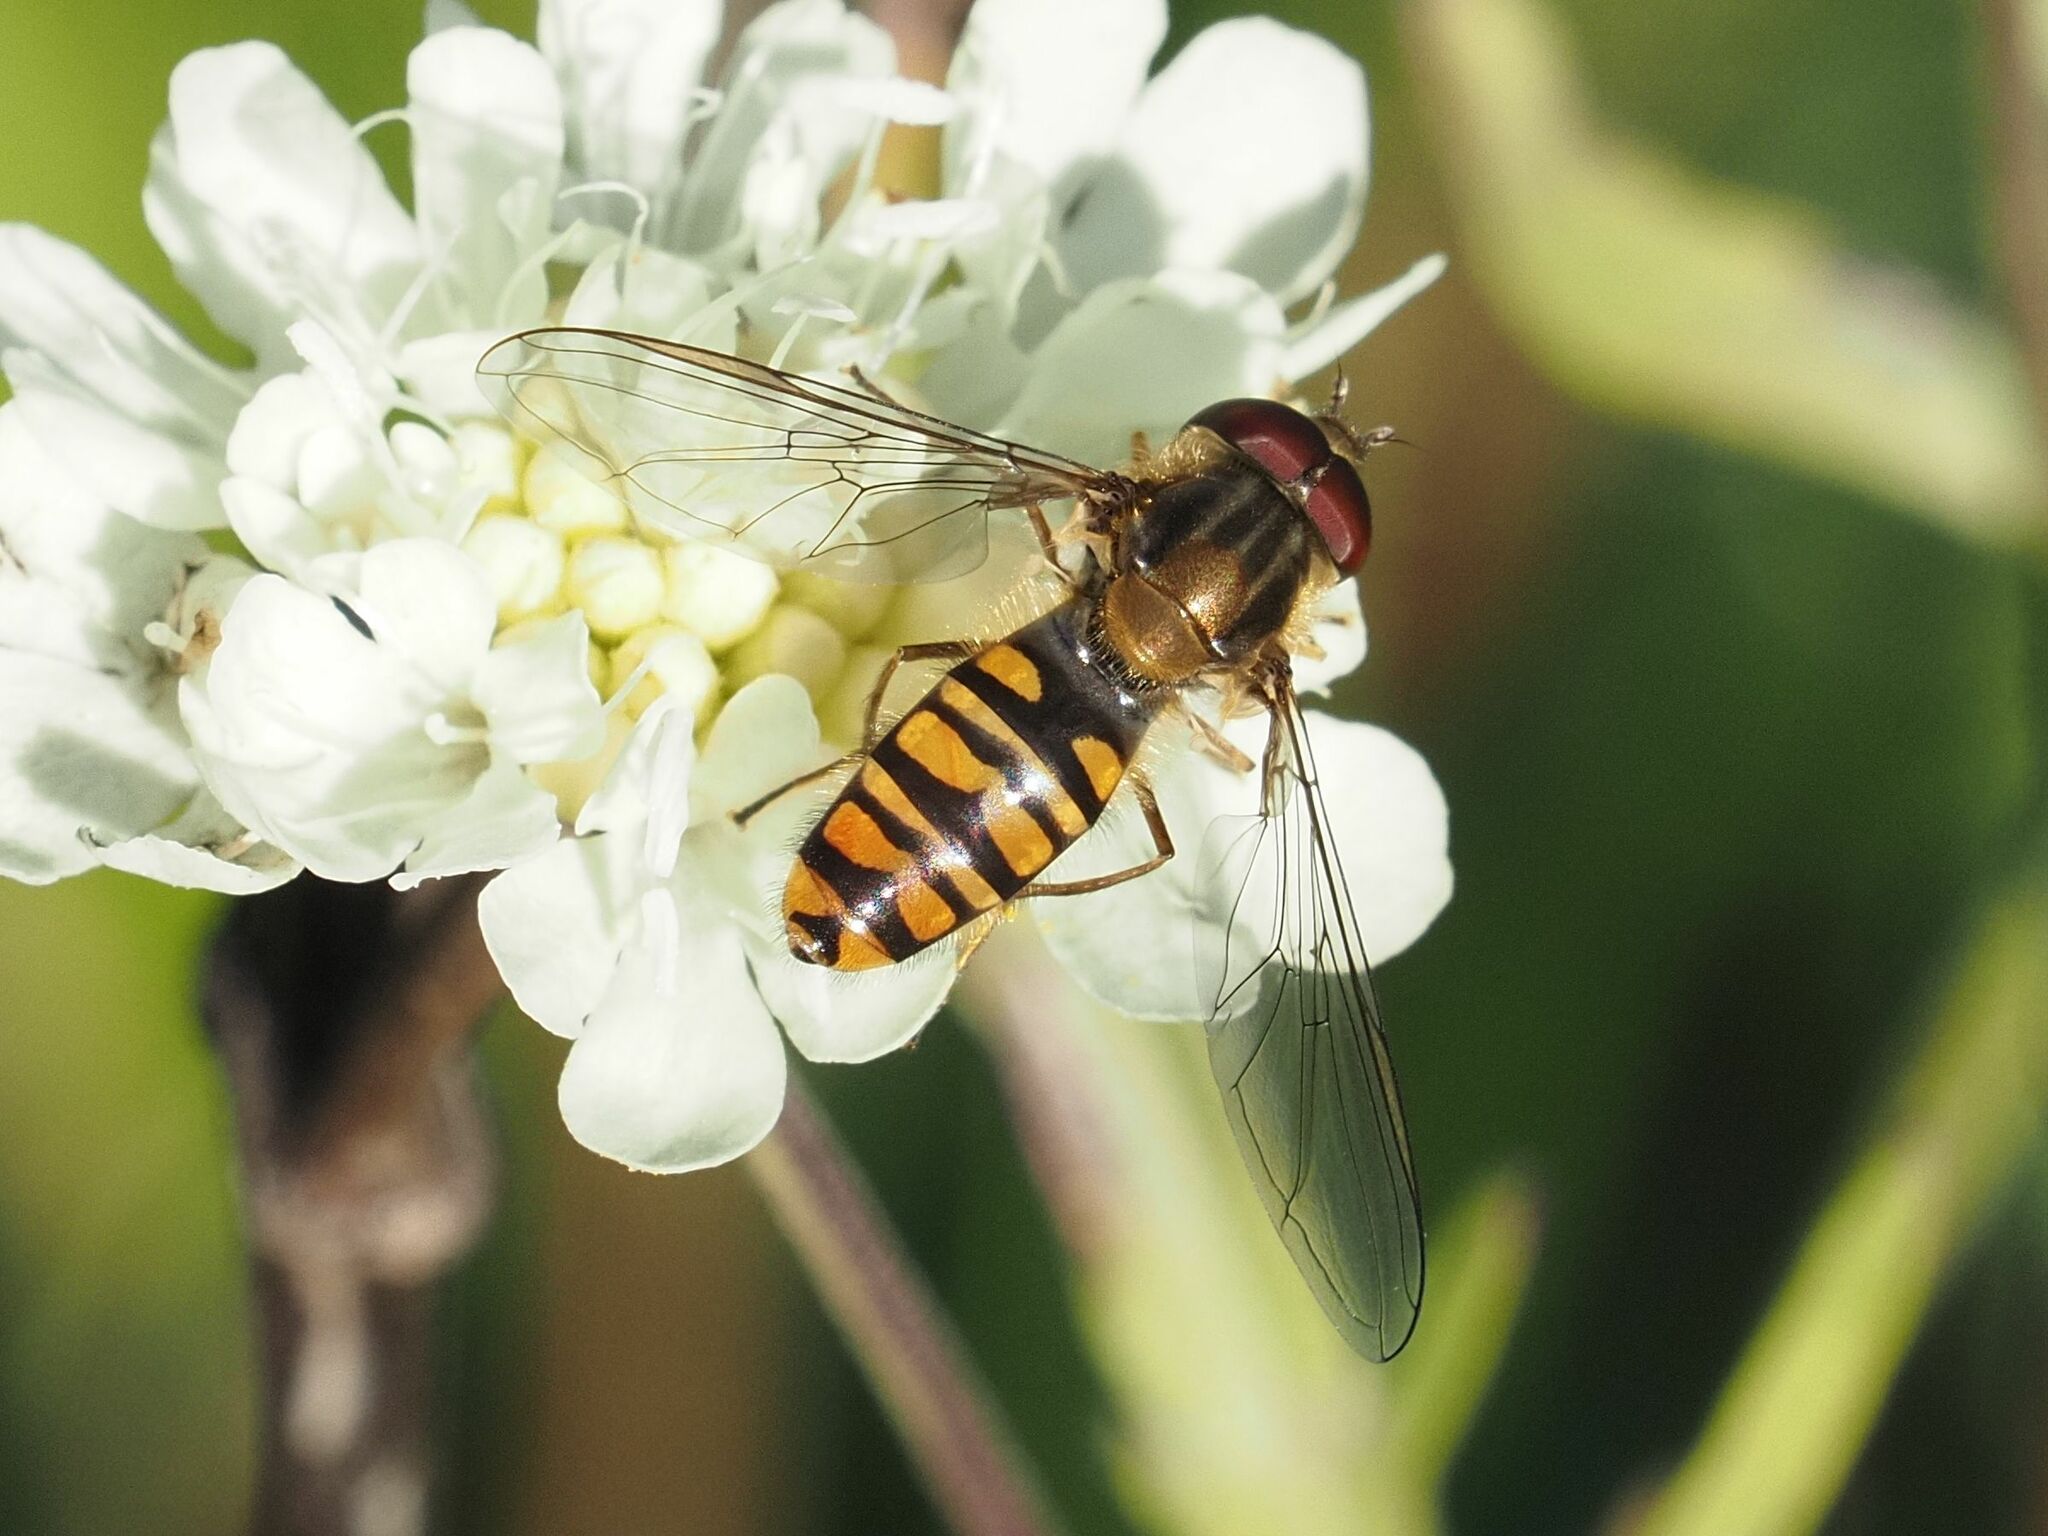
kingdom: Animalia
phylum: Arthropoda
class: Insecta
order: Diptera
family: Syrphidae
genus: Episyrphus
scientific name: Episyrphus balteatus
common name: Marmalade hoverfly
